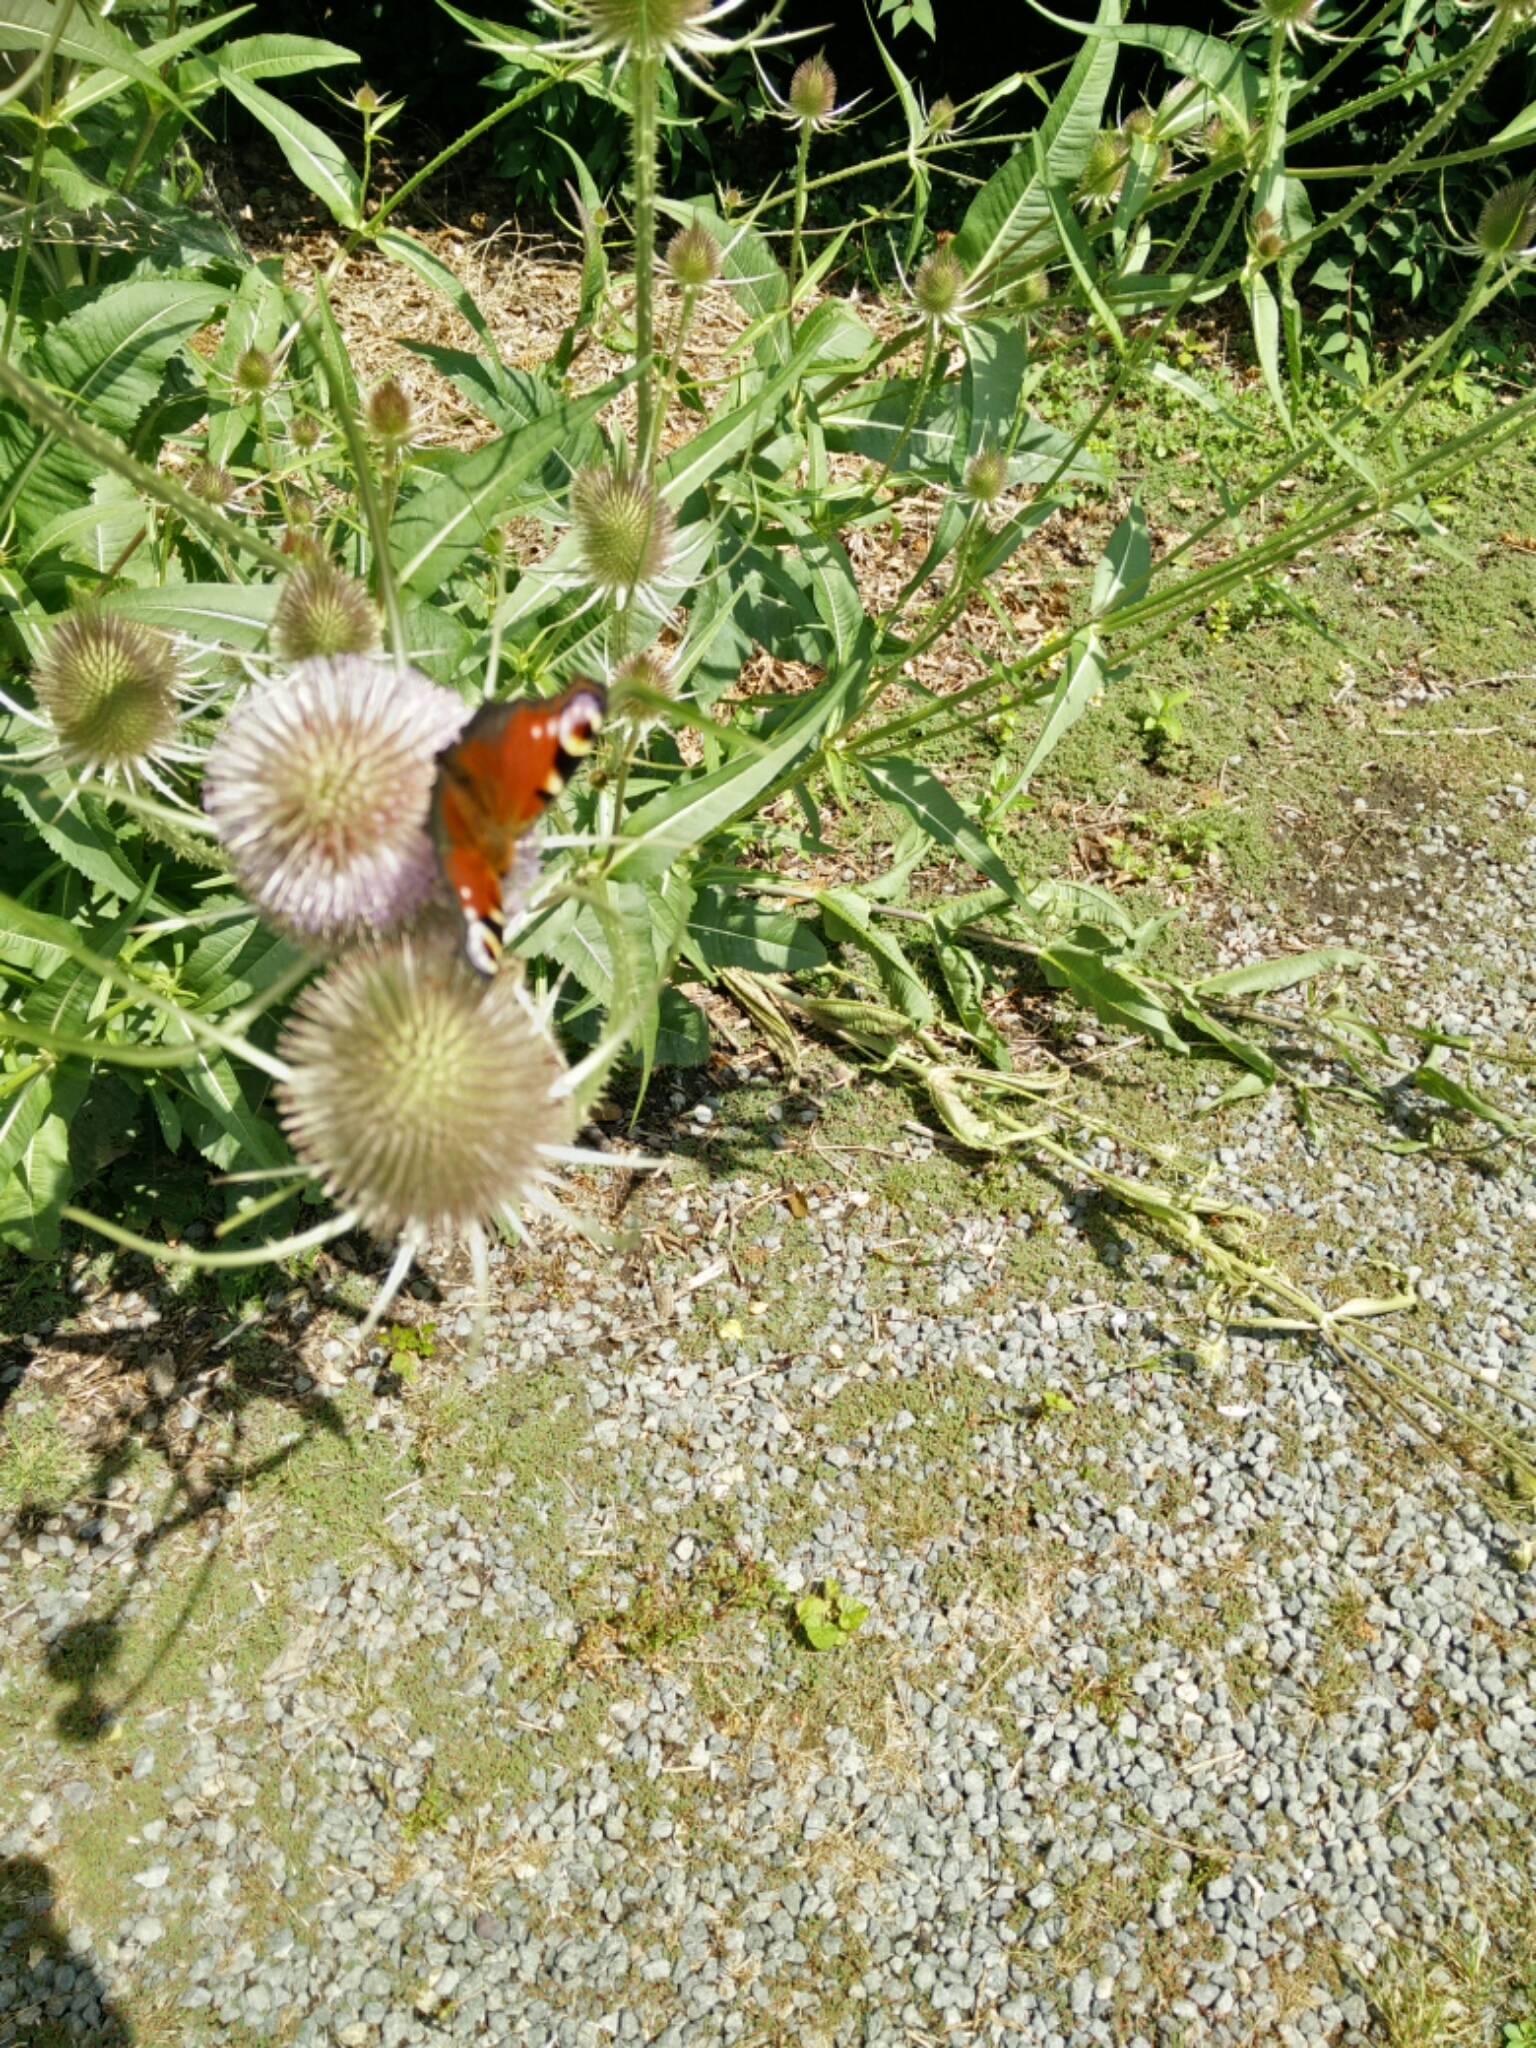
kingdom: Animalia
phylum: Arthropoda
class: Insecta
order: Lepidoptera
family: Nymphalidae
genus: Aglais
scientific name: Aglais io
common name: Peacock
